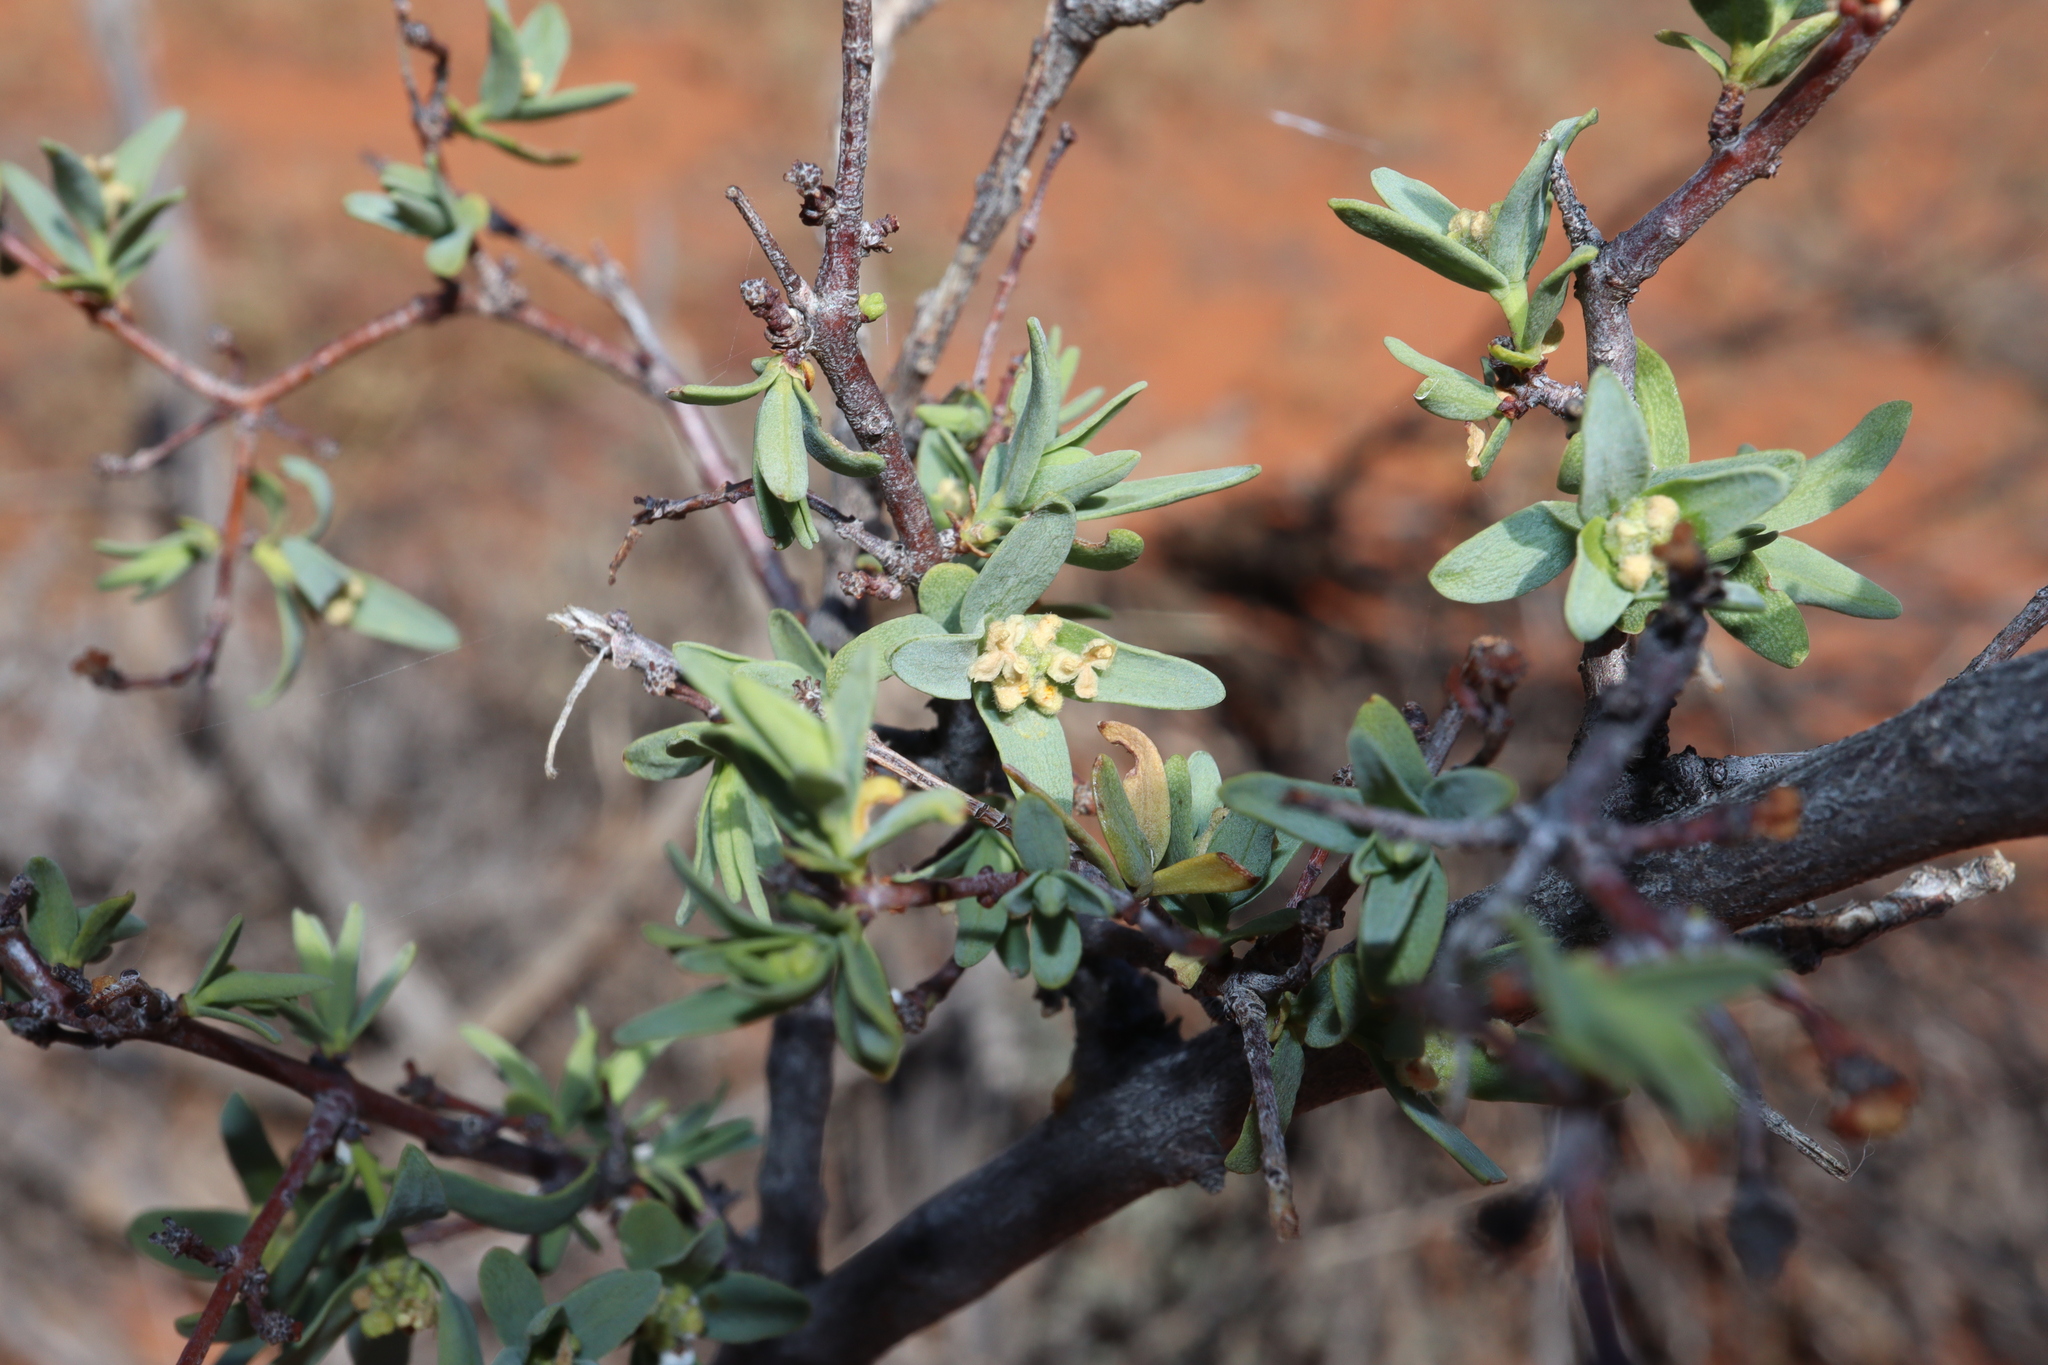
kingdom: Plantae
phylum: Tracheophyta
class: Magnoliopsida
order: Malvales
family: Thymelaeaceae
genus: Pimelea
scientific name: Pimelea microcephala
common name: Mallee riceflower
